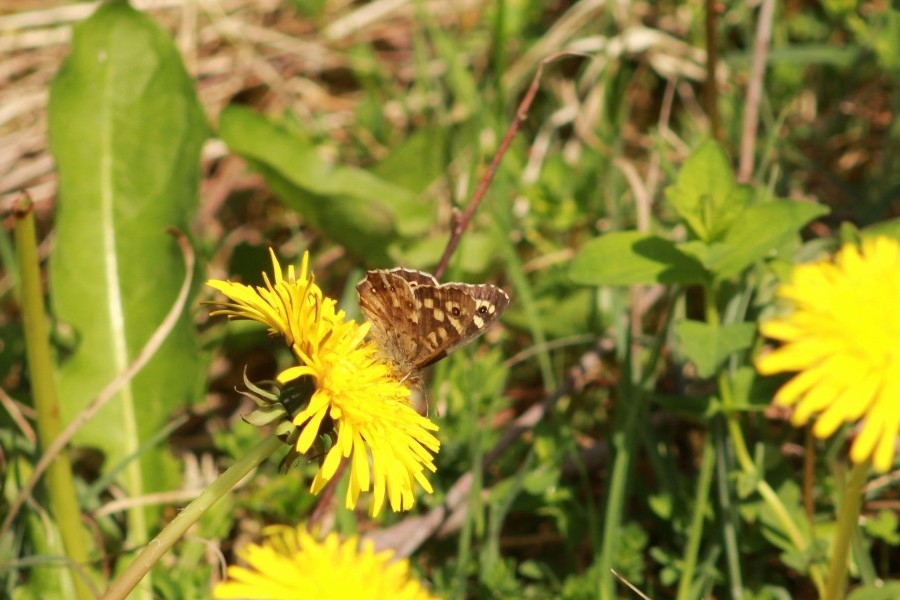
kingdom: Animalia
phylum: Arthropoda
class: Insecta
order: Lepidoptera
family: Nymphalidae
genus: Pararge
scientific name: Pararge aegeria
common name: Speckled wood
